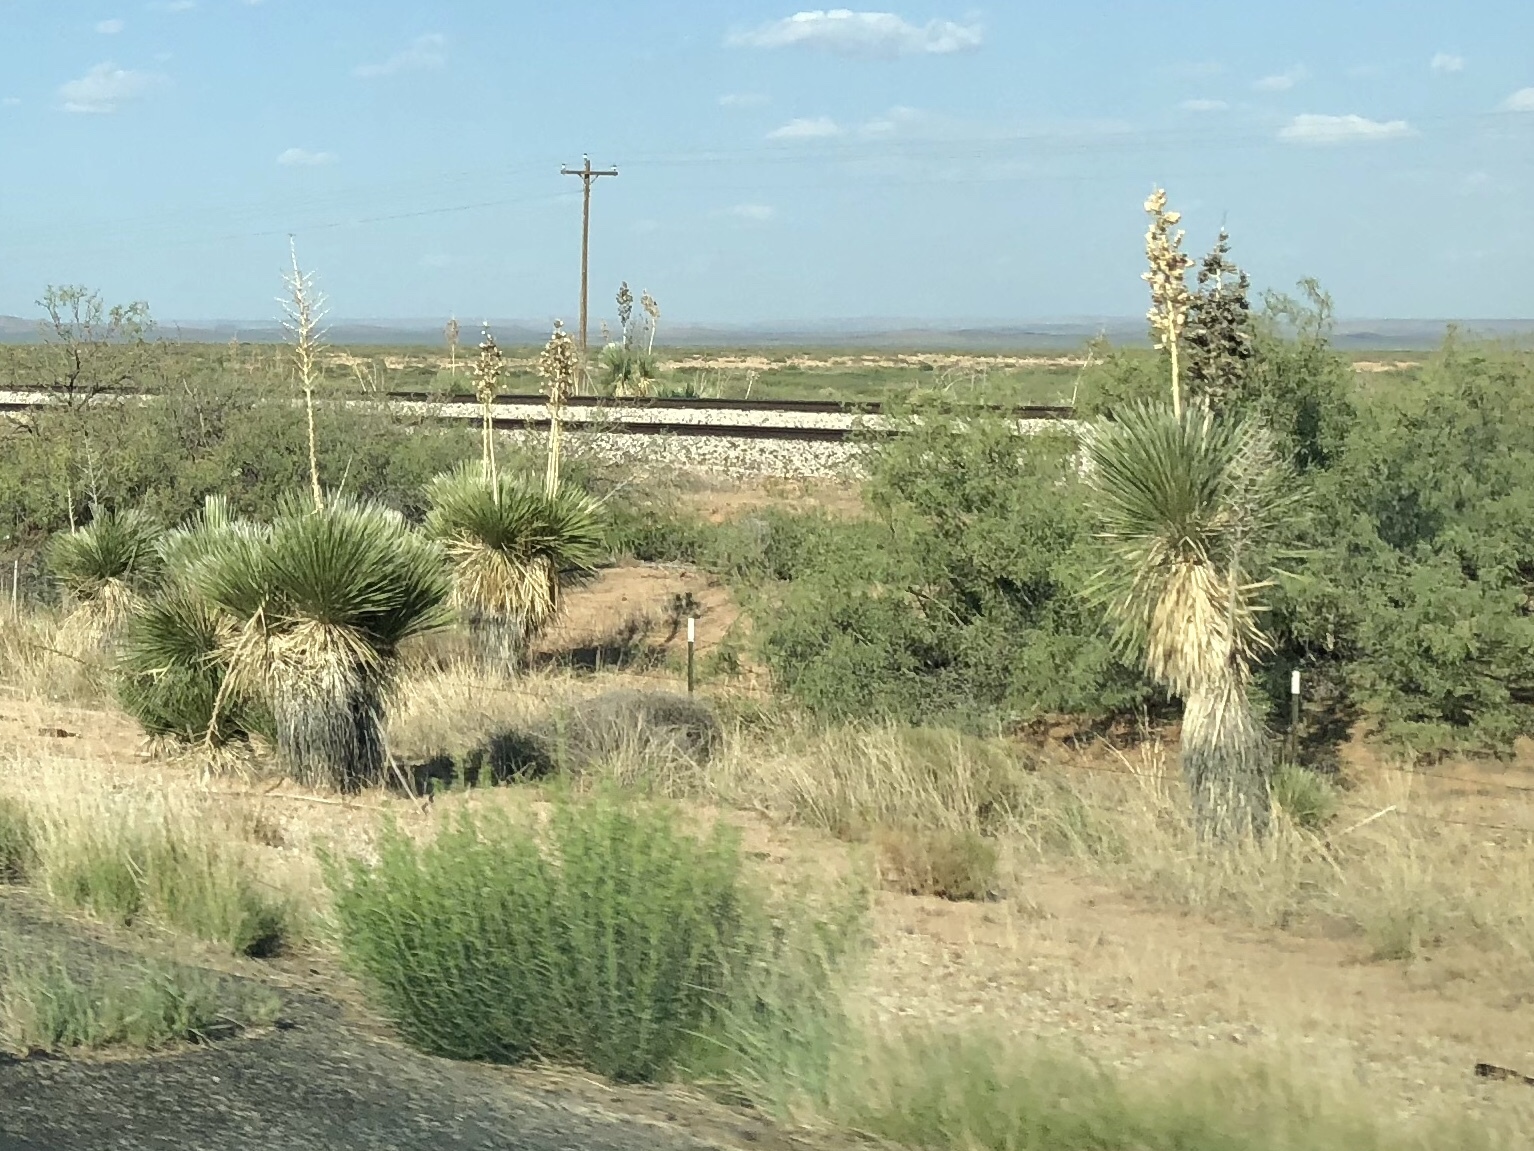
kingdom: Plantae
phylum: Tracheophyta
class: Liliopsida
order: Asparagales
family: Asparagaceae
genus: Yucca
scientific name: Yucca elata
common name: Palmella
